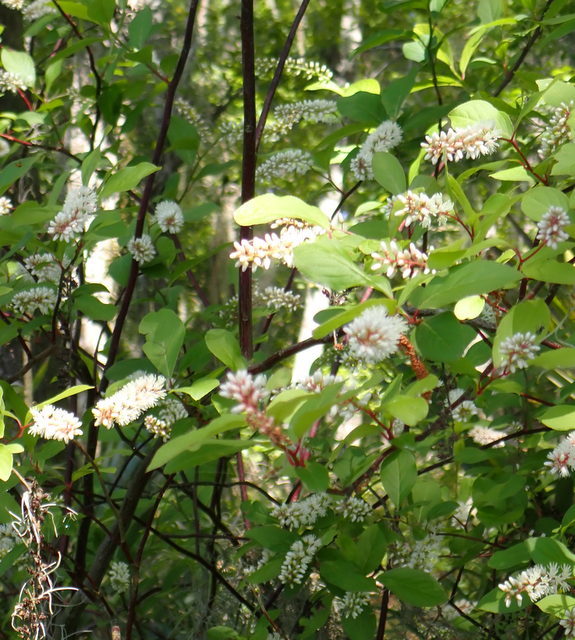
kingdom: Plantae
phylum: Tracheophyta
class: Magnoliopsida
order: Saxifragales
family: Iteaceae
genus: Itea
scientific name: Itea virginica
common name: Sweetspire
